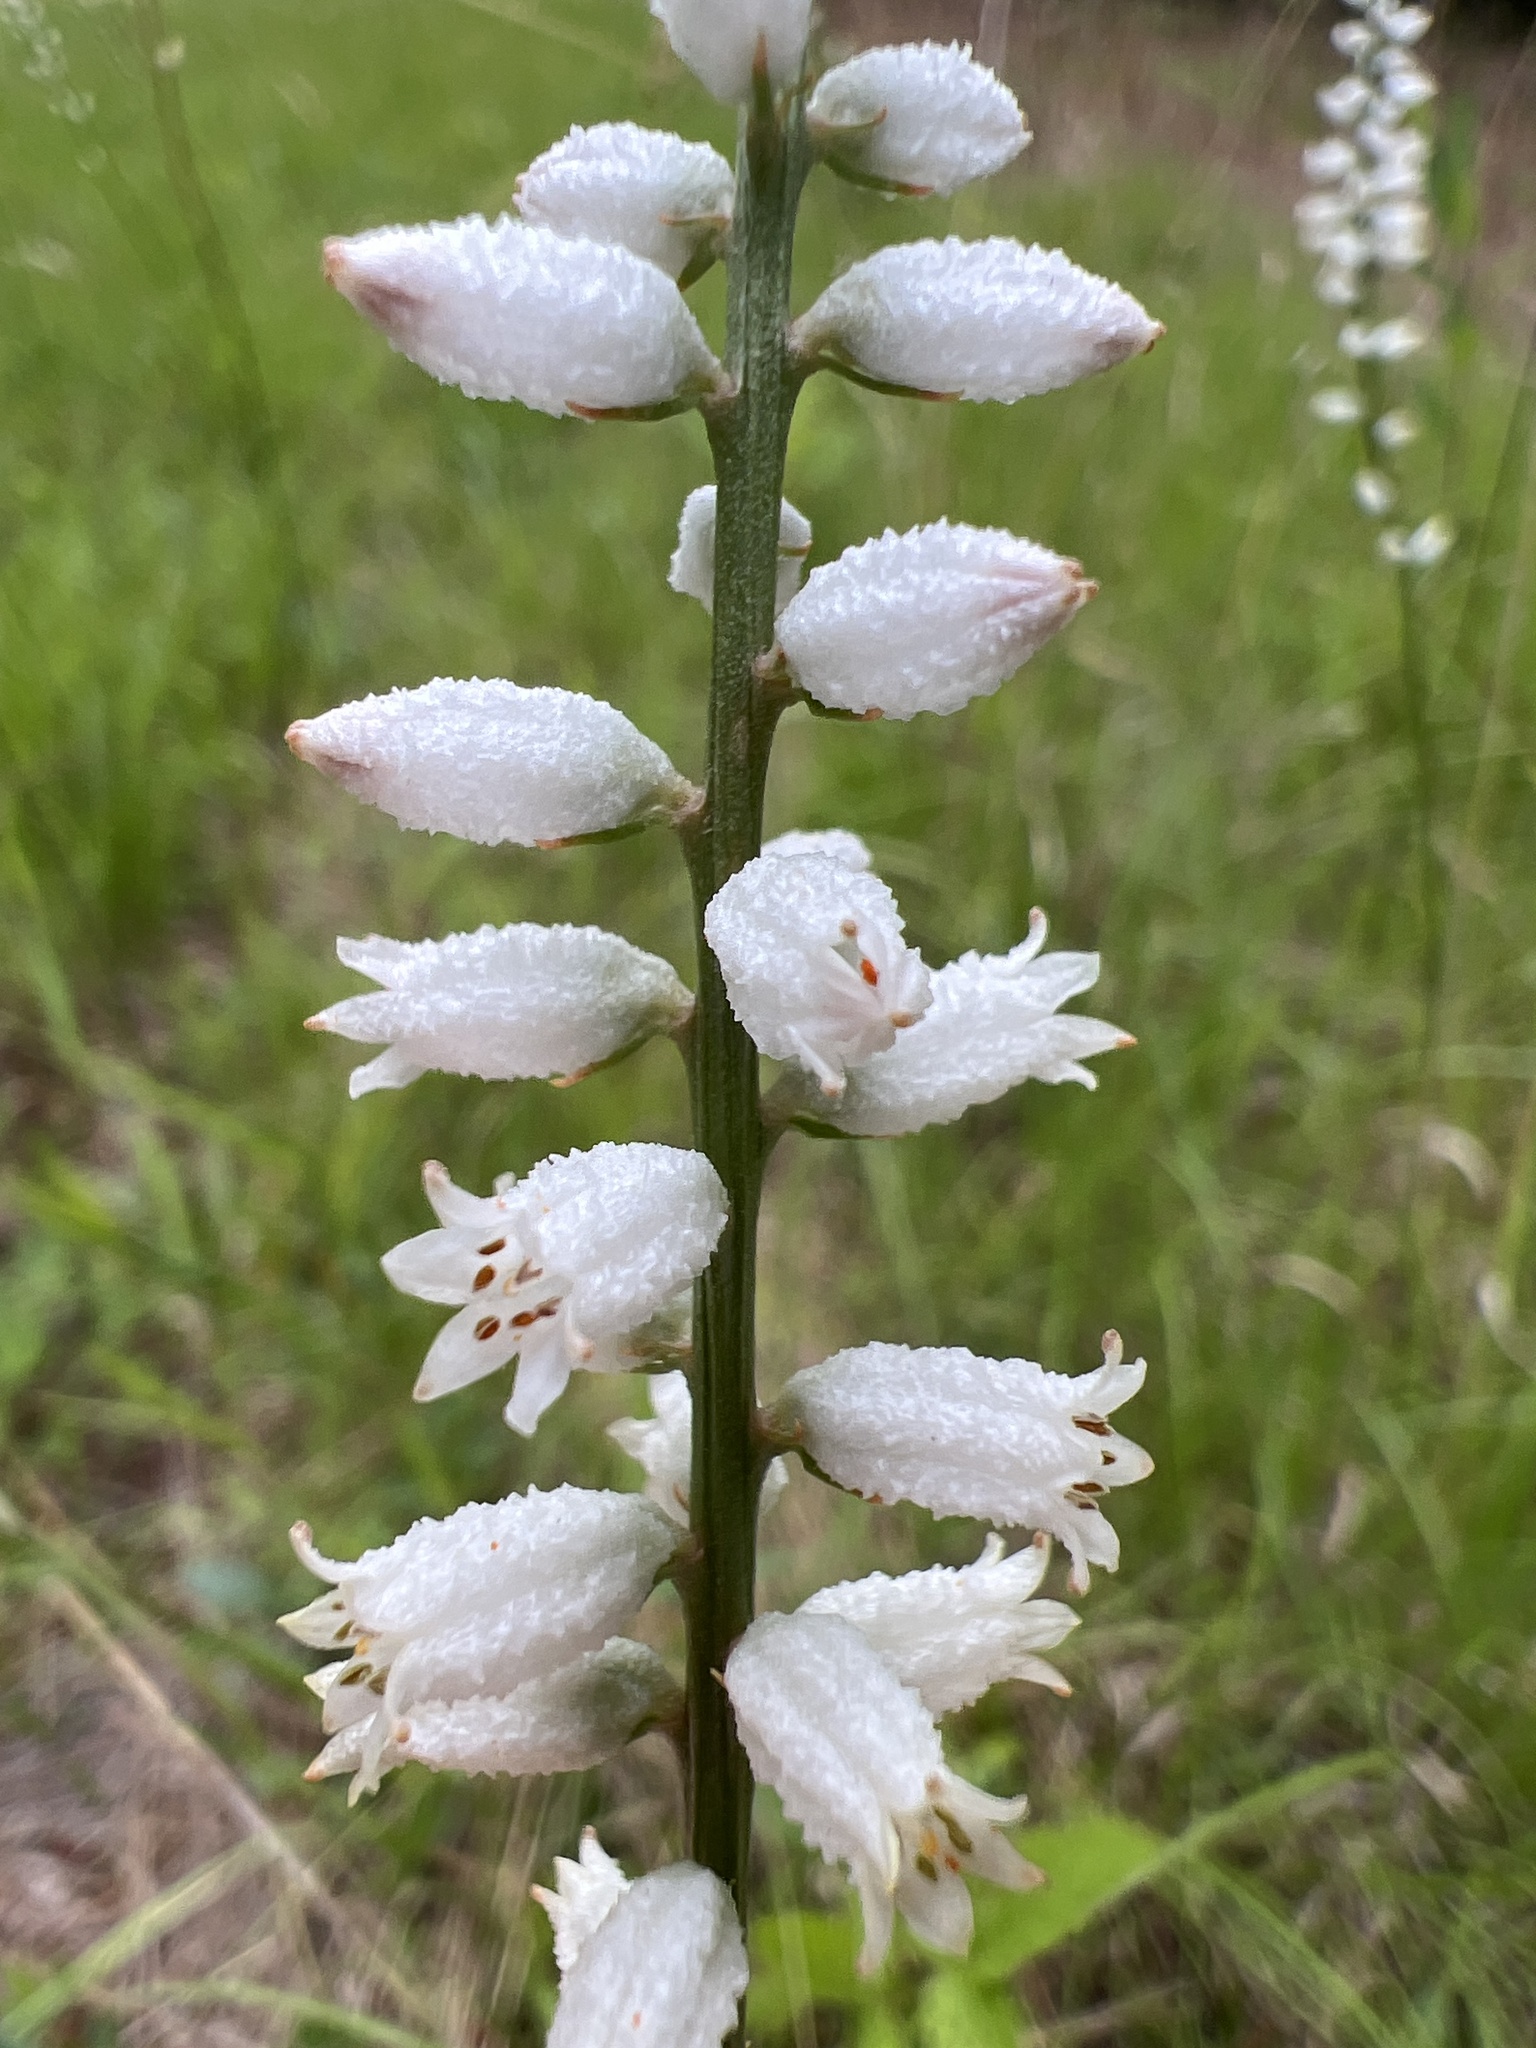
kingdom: Plantae
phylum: Tracheophyta
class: Liliopsida
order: Dioscoreales
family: Nartheciaceae
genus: Aletris
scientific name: Aletris farinosa
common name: Colicroot
